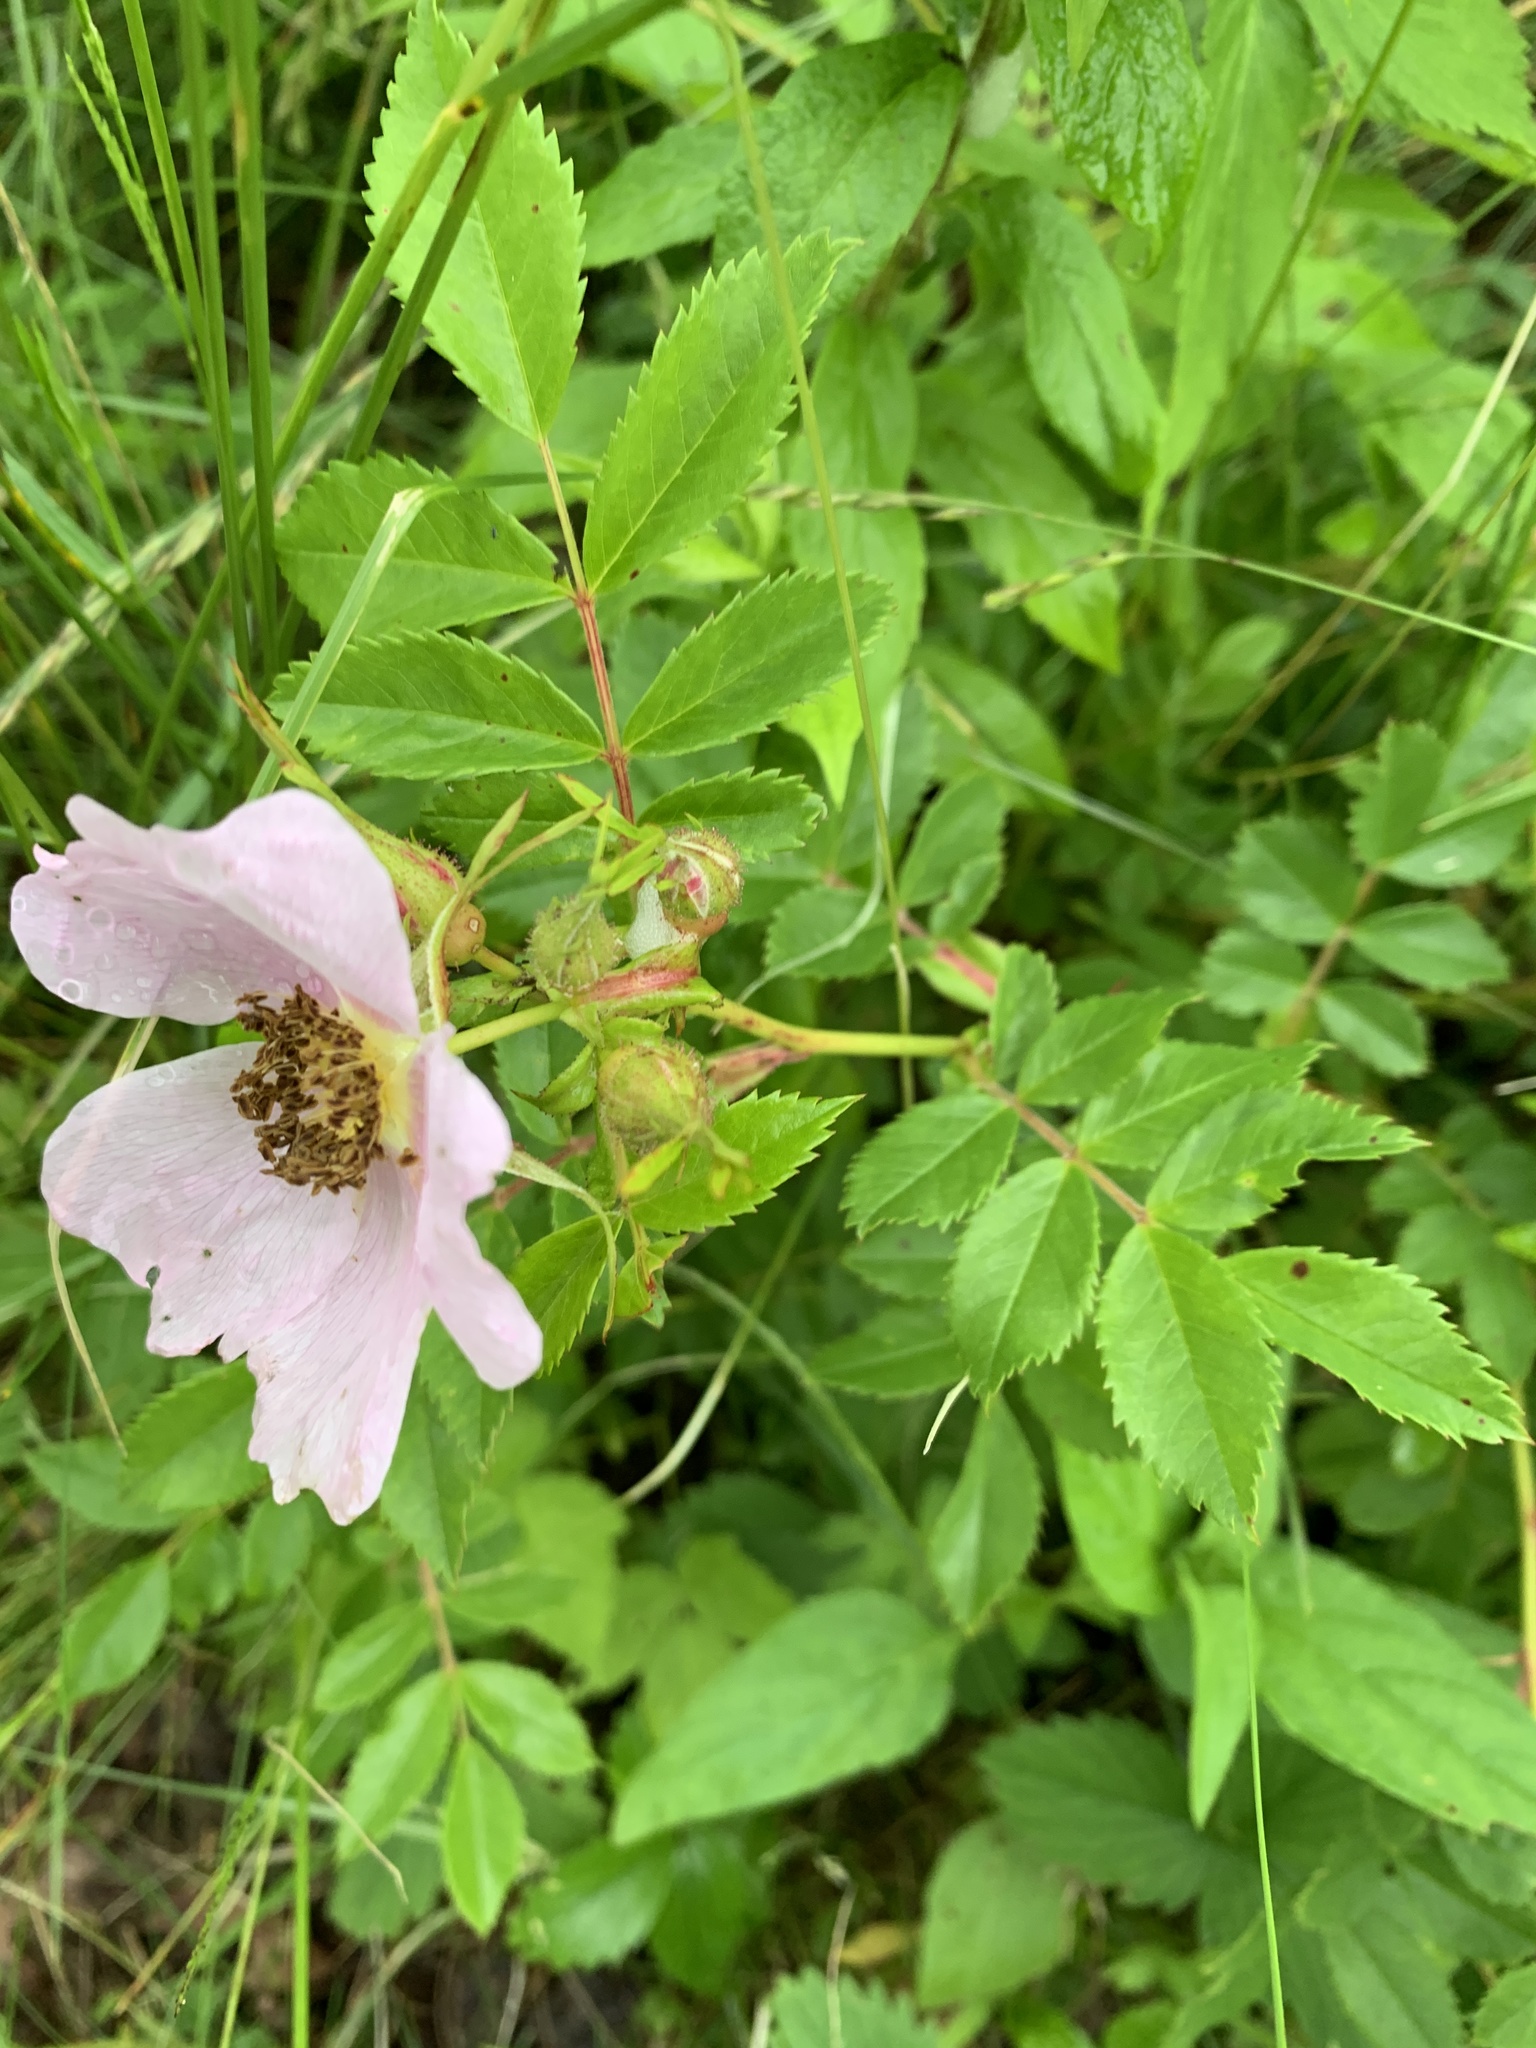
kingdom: Plantae
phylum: Tracheophyta
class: Magnoliopsida
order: Rosales
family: Rosaceae
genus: Rosa
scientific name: Rosa carolina
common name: Pasture rose
